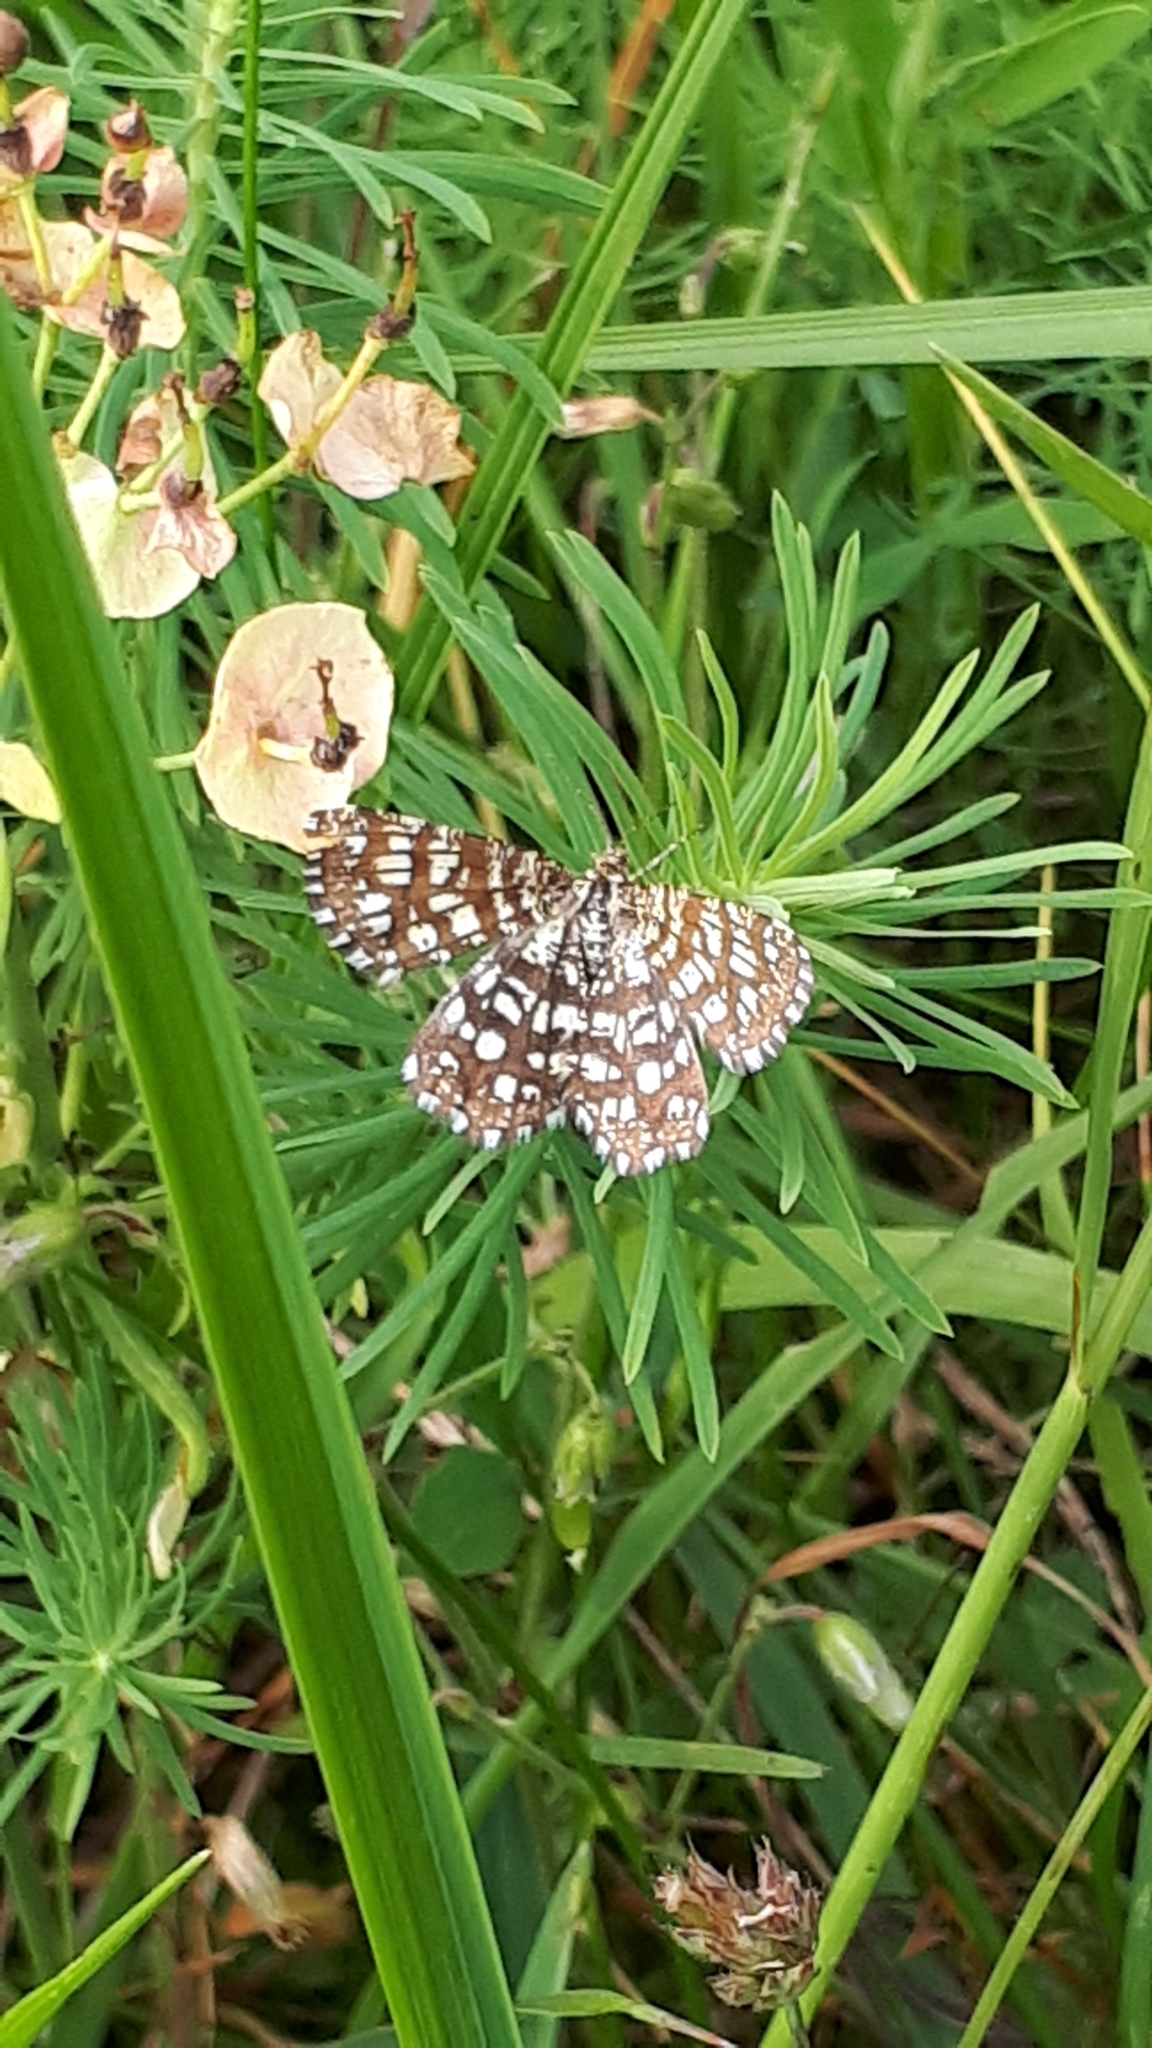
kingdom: Animalia
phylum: Arthropoda
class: Insecta
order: Lepidoptera
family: Geometridae
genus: Chiasmia
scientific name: Chiasmia clathrata
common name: Latticed heath
